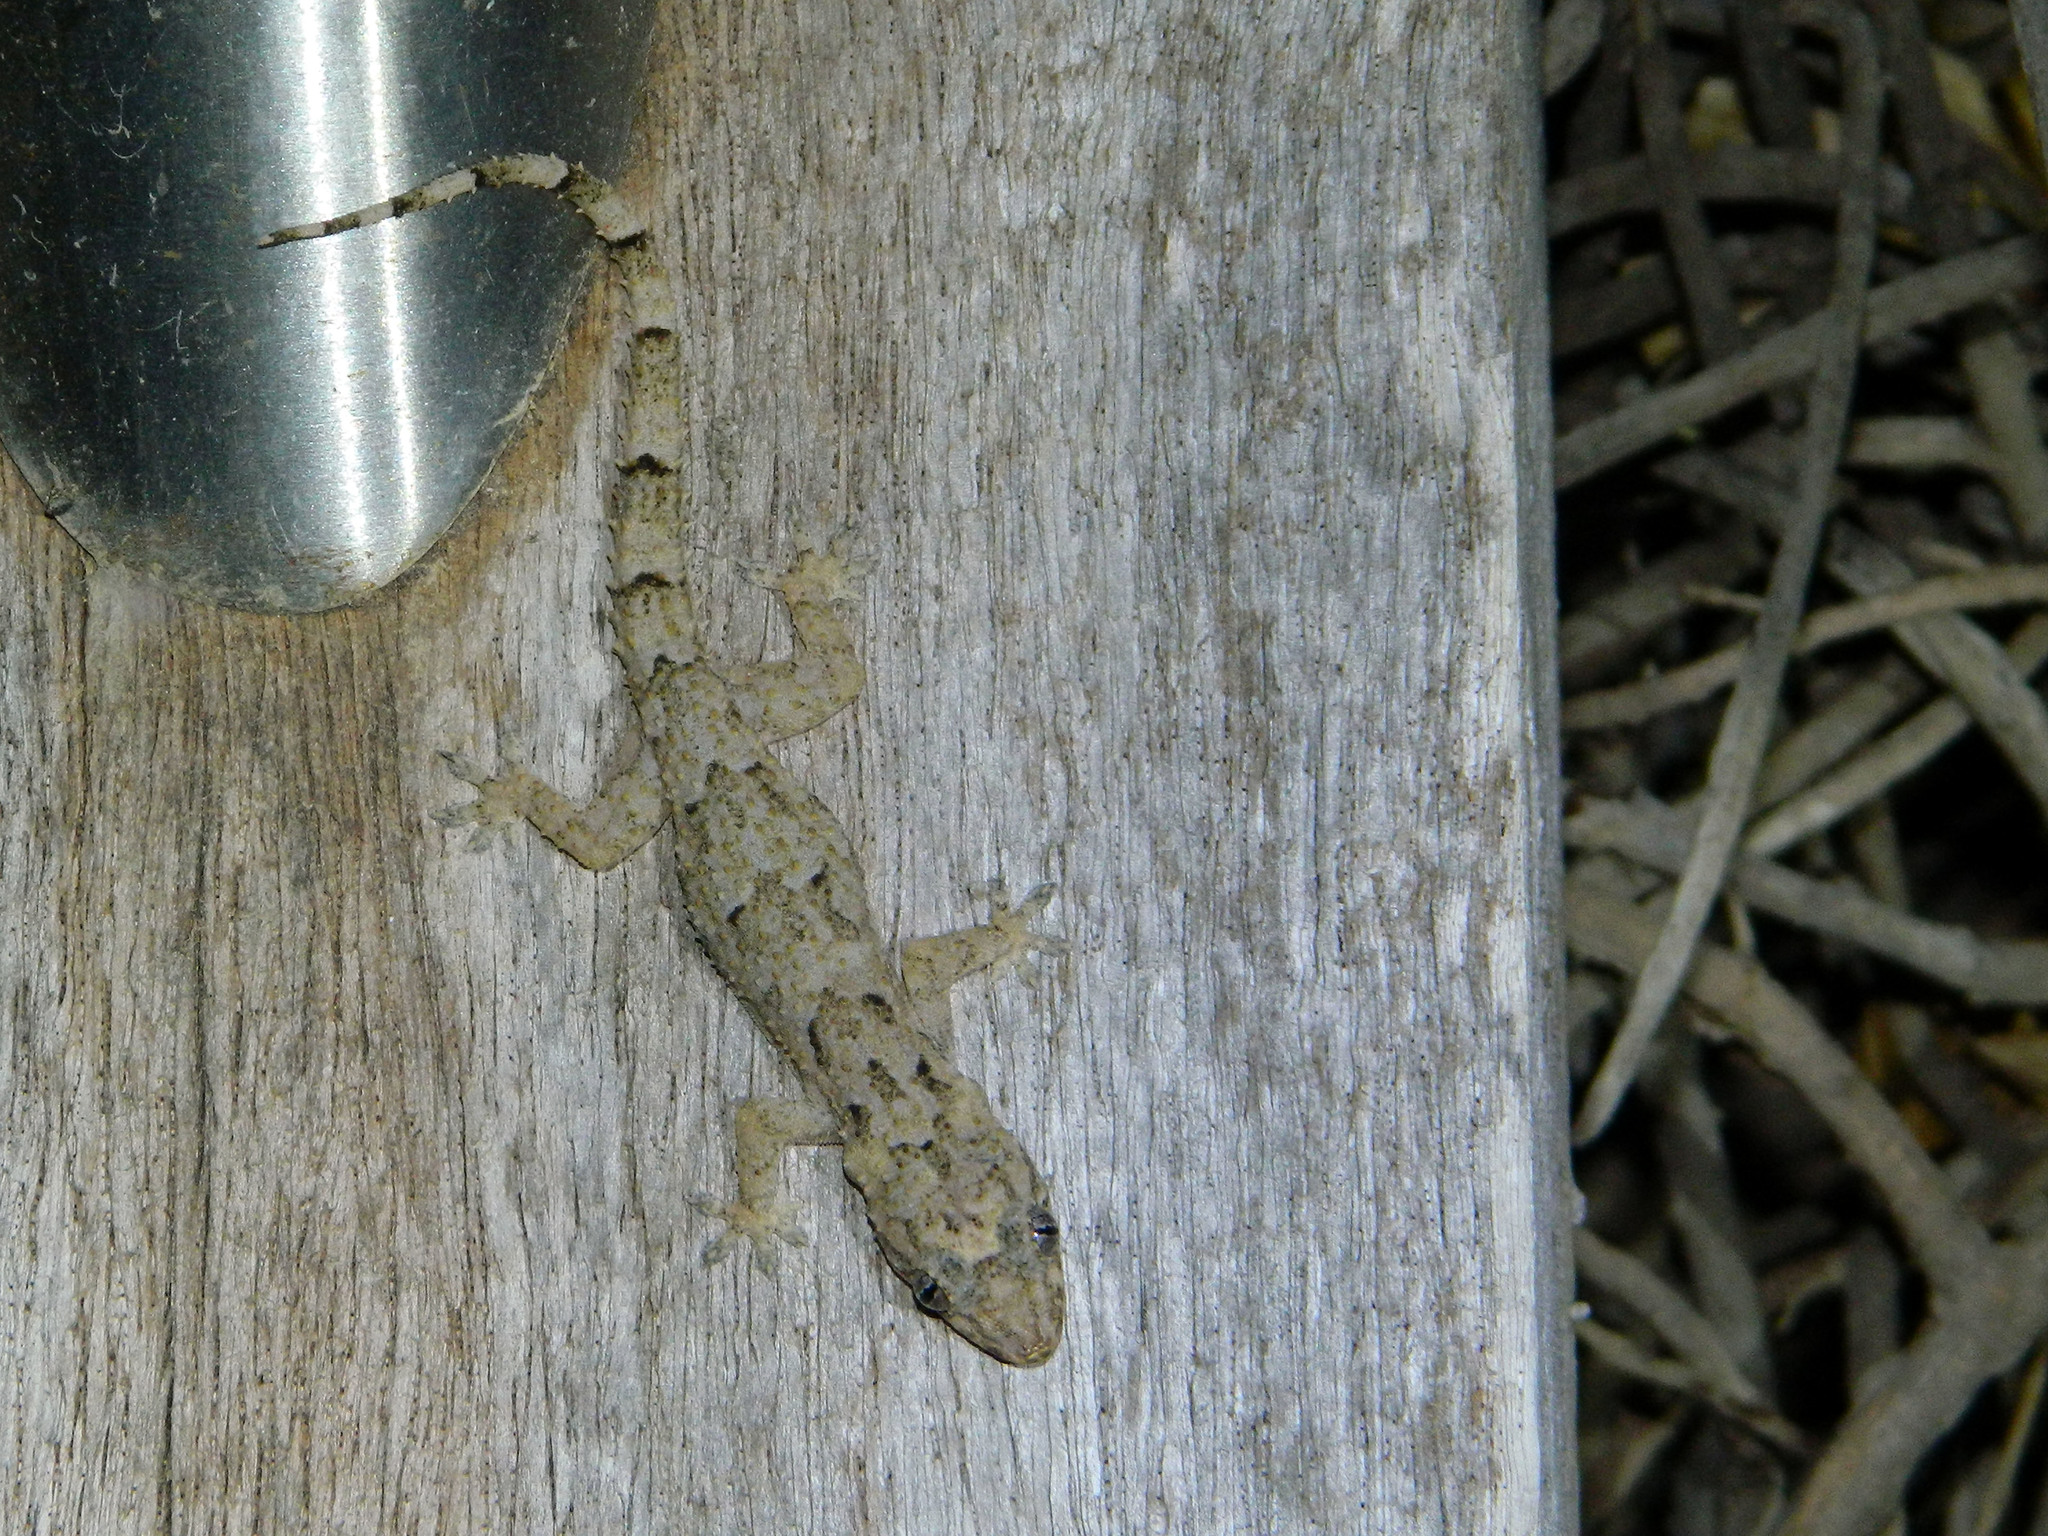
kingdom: Animalia
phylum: Chordata
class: Squamata
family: Gekkonidae
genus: Hemidactylus
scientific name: Hemidactylus mercatorius
